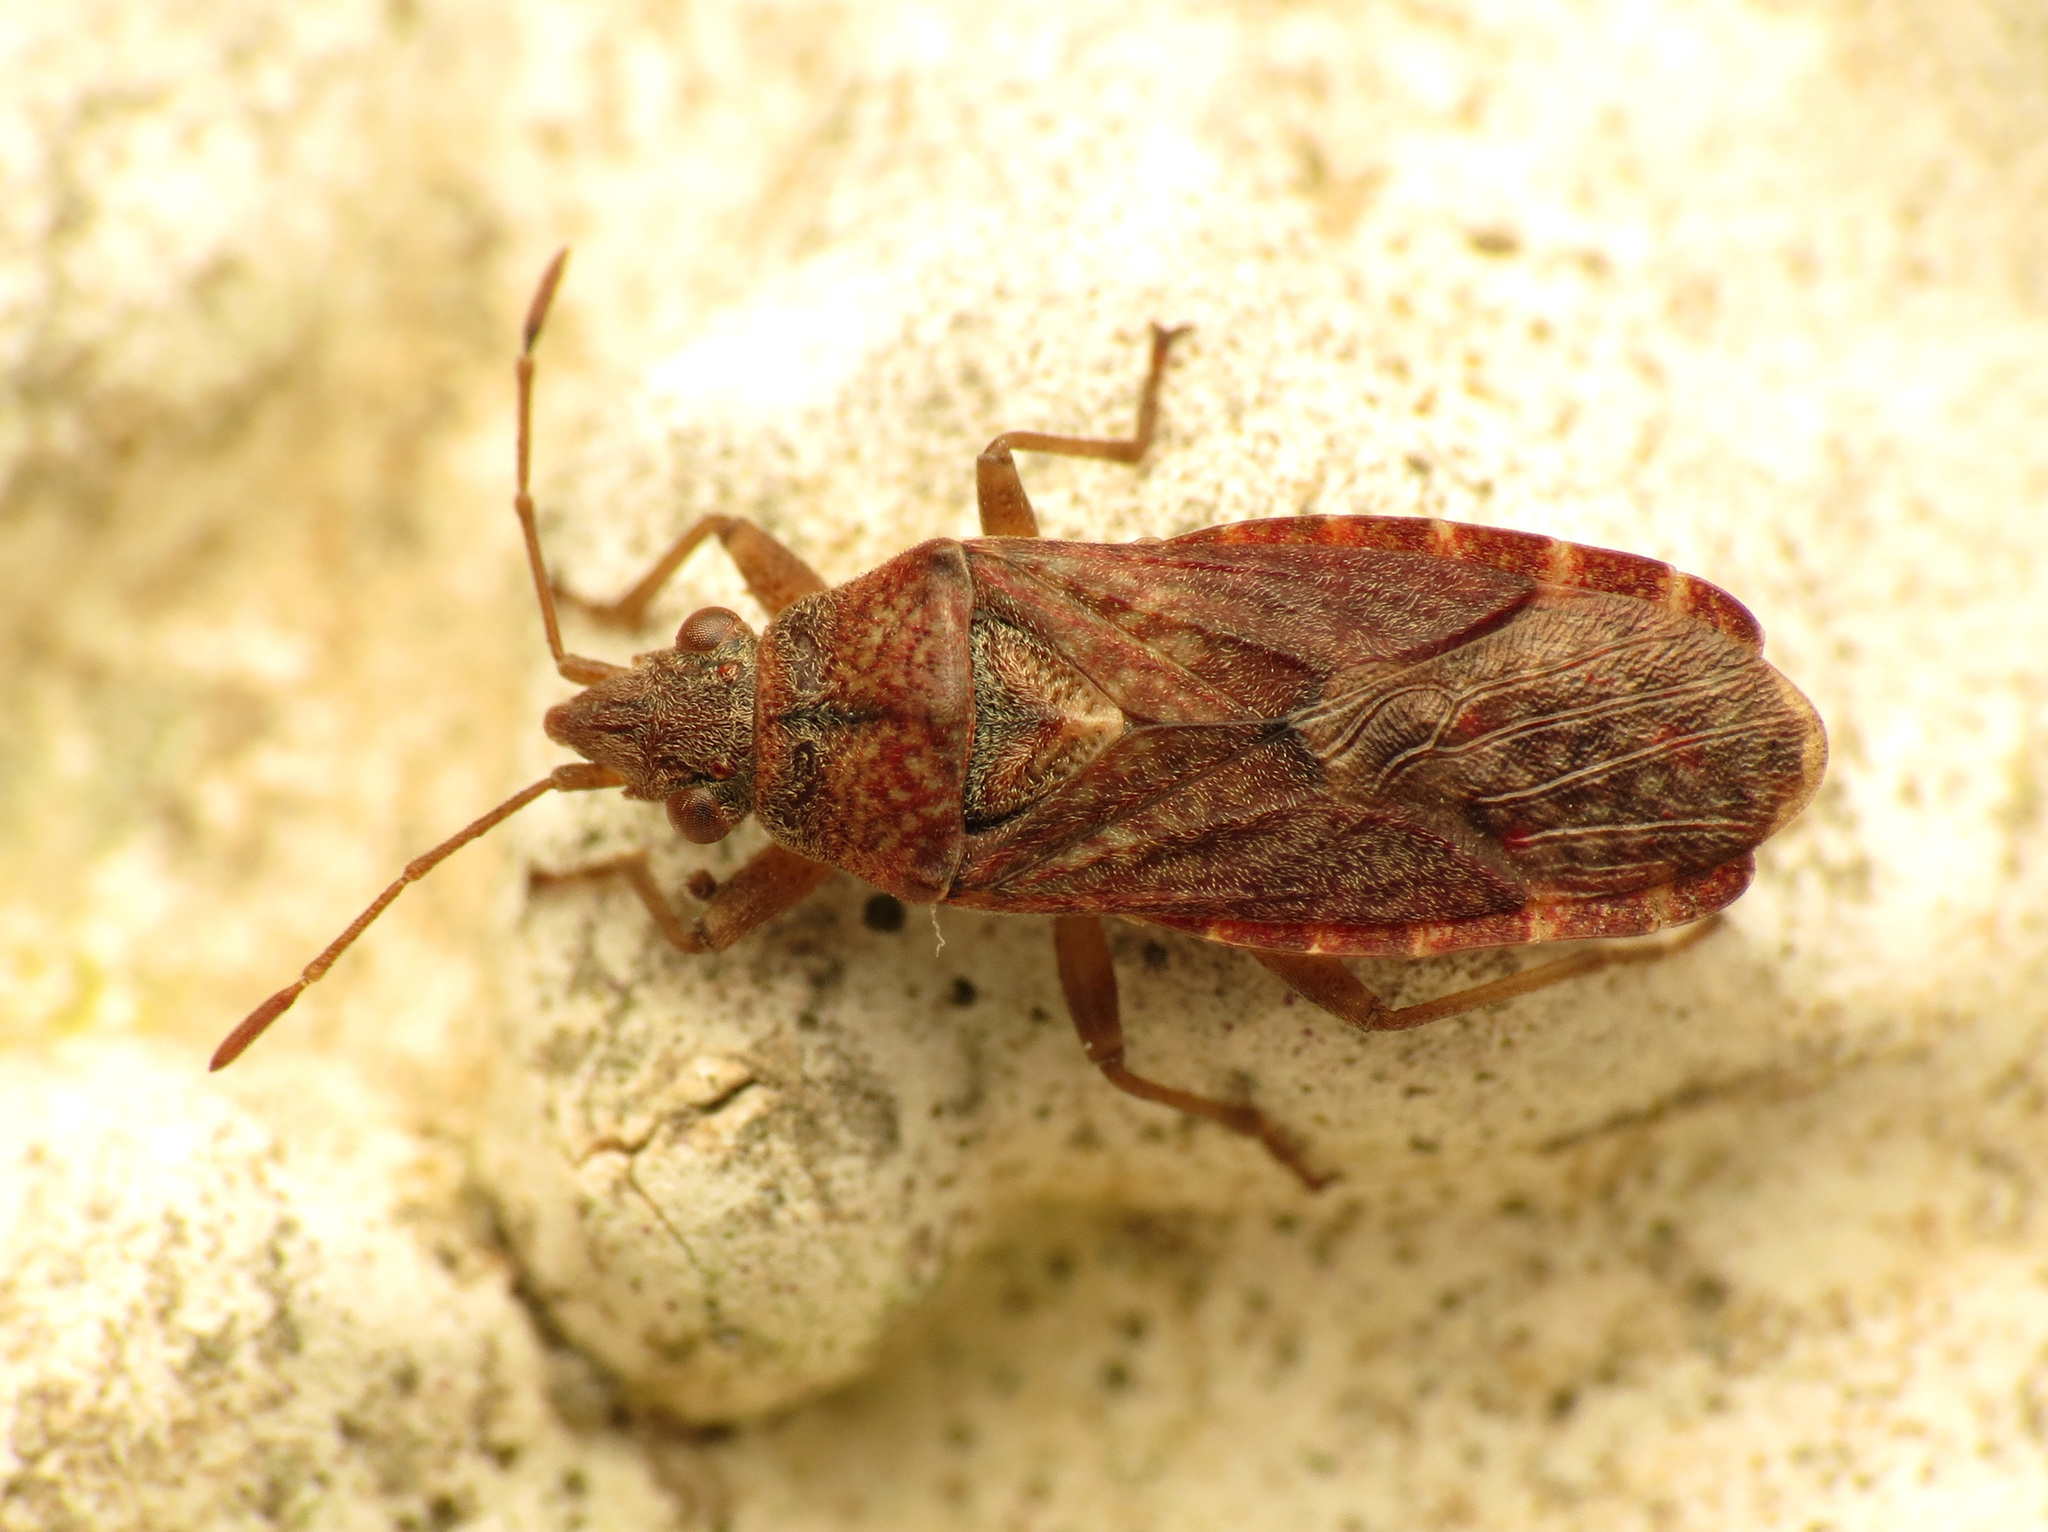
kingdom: Animalia
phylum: Arthropoda
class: Insecta
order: Hemiptera
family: Lygaeidae
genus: Orsillus
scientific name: Orsillus depressus
